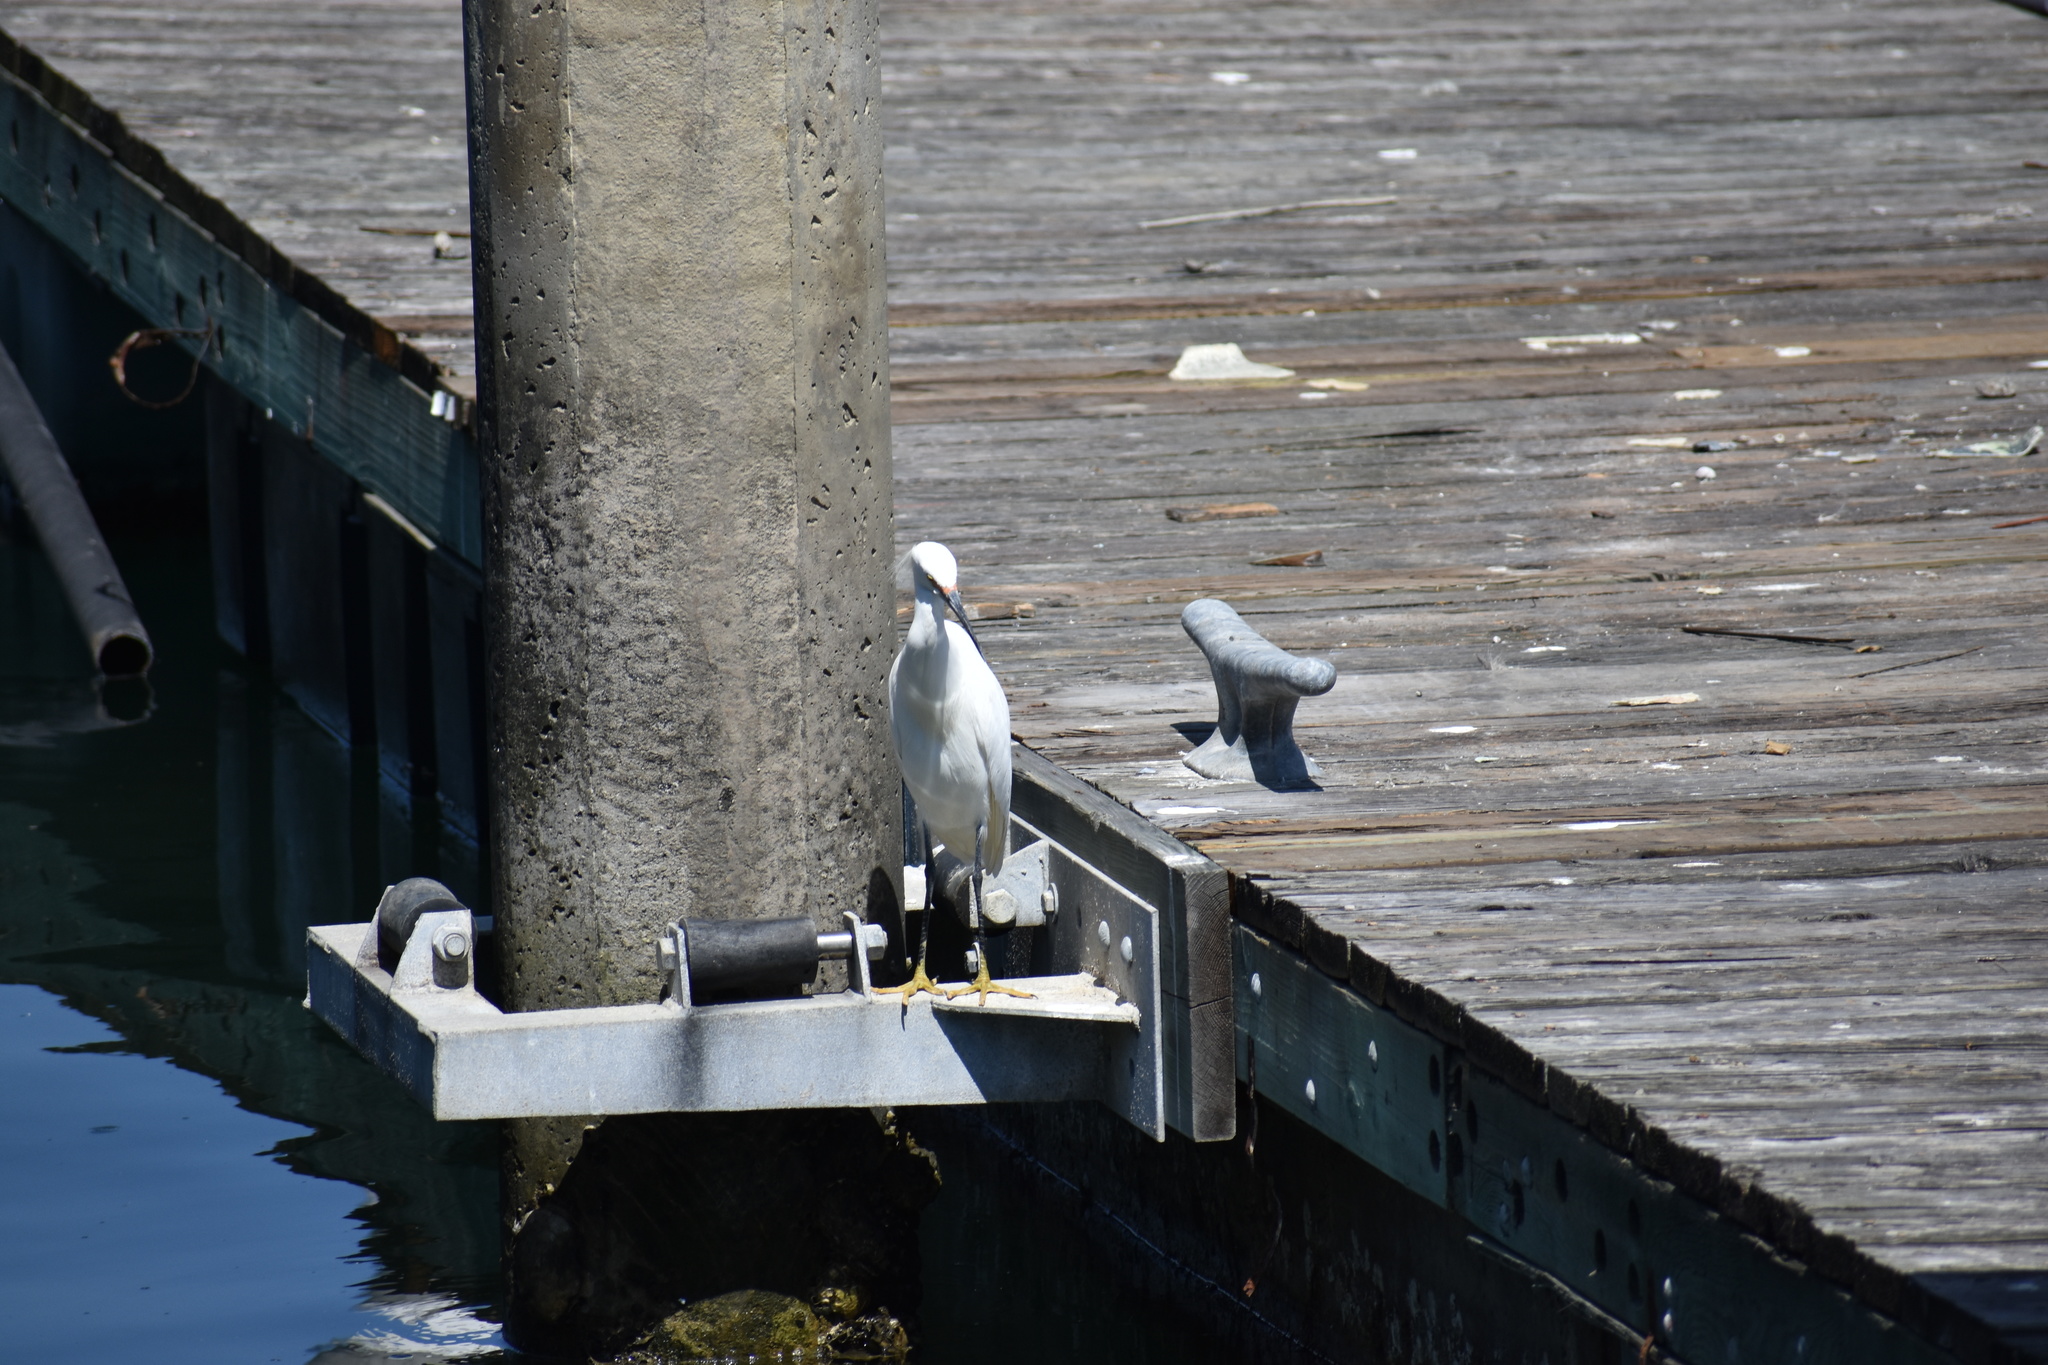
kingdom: Animalia
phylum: Chordata
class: Aves
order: Pelecaniformes
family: Ardeidae
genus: Egretta
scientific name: Egretta thula
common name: Snowy egret
